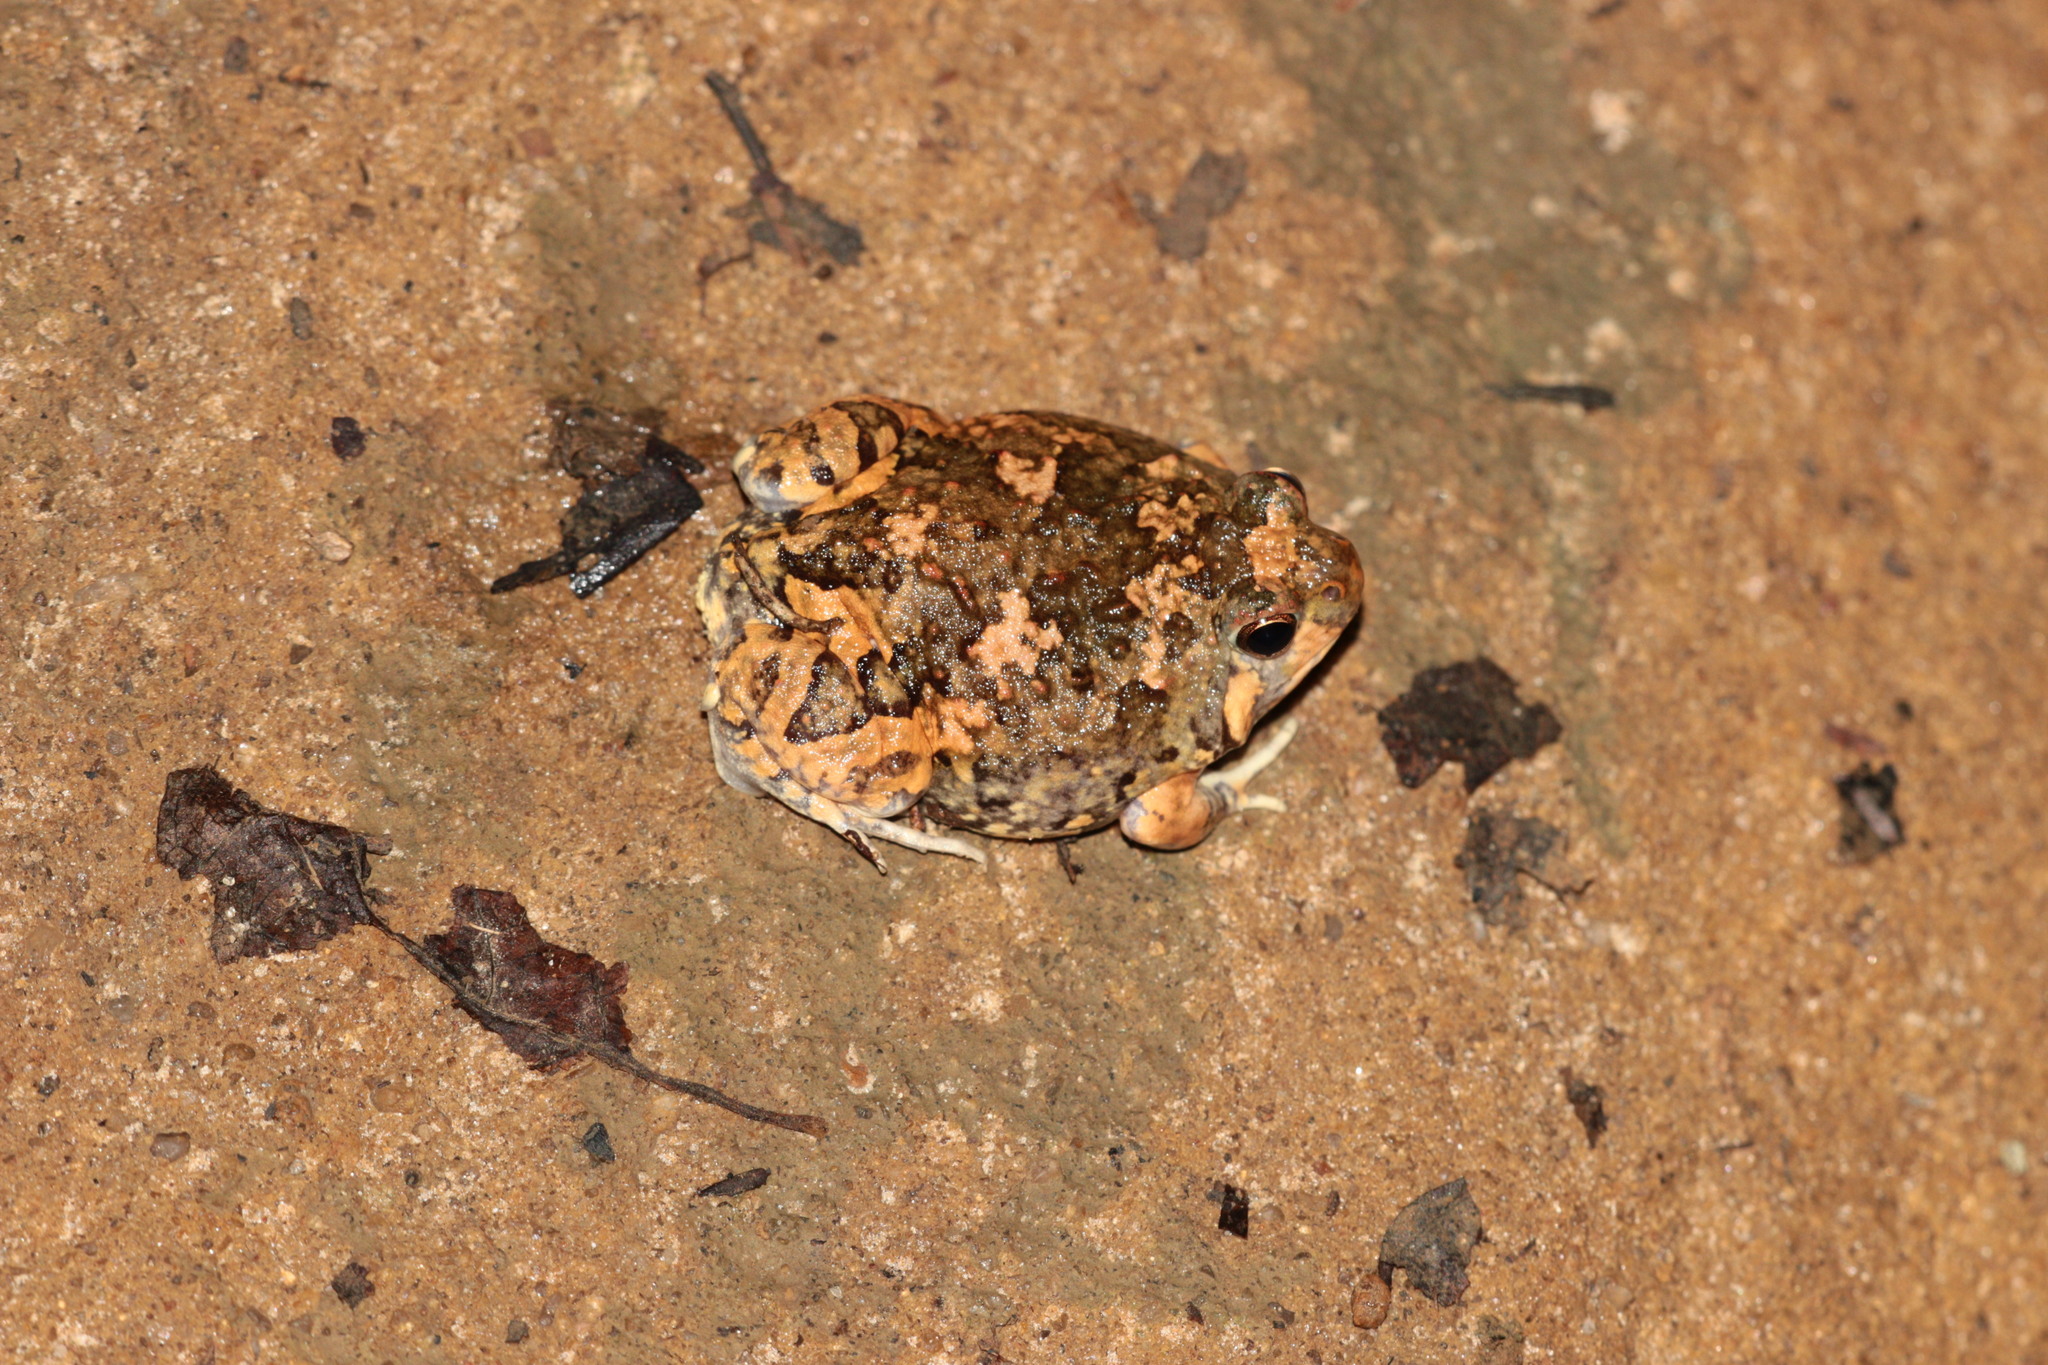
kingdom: Animalia
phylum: Chordata
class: Amphibia
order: Anura
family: Microhylidae
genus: Scaphiophryne
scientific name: Scaphiophryne brevis
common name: Brown rain frog
